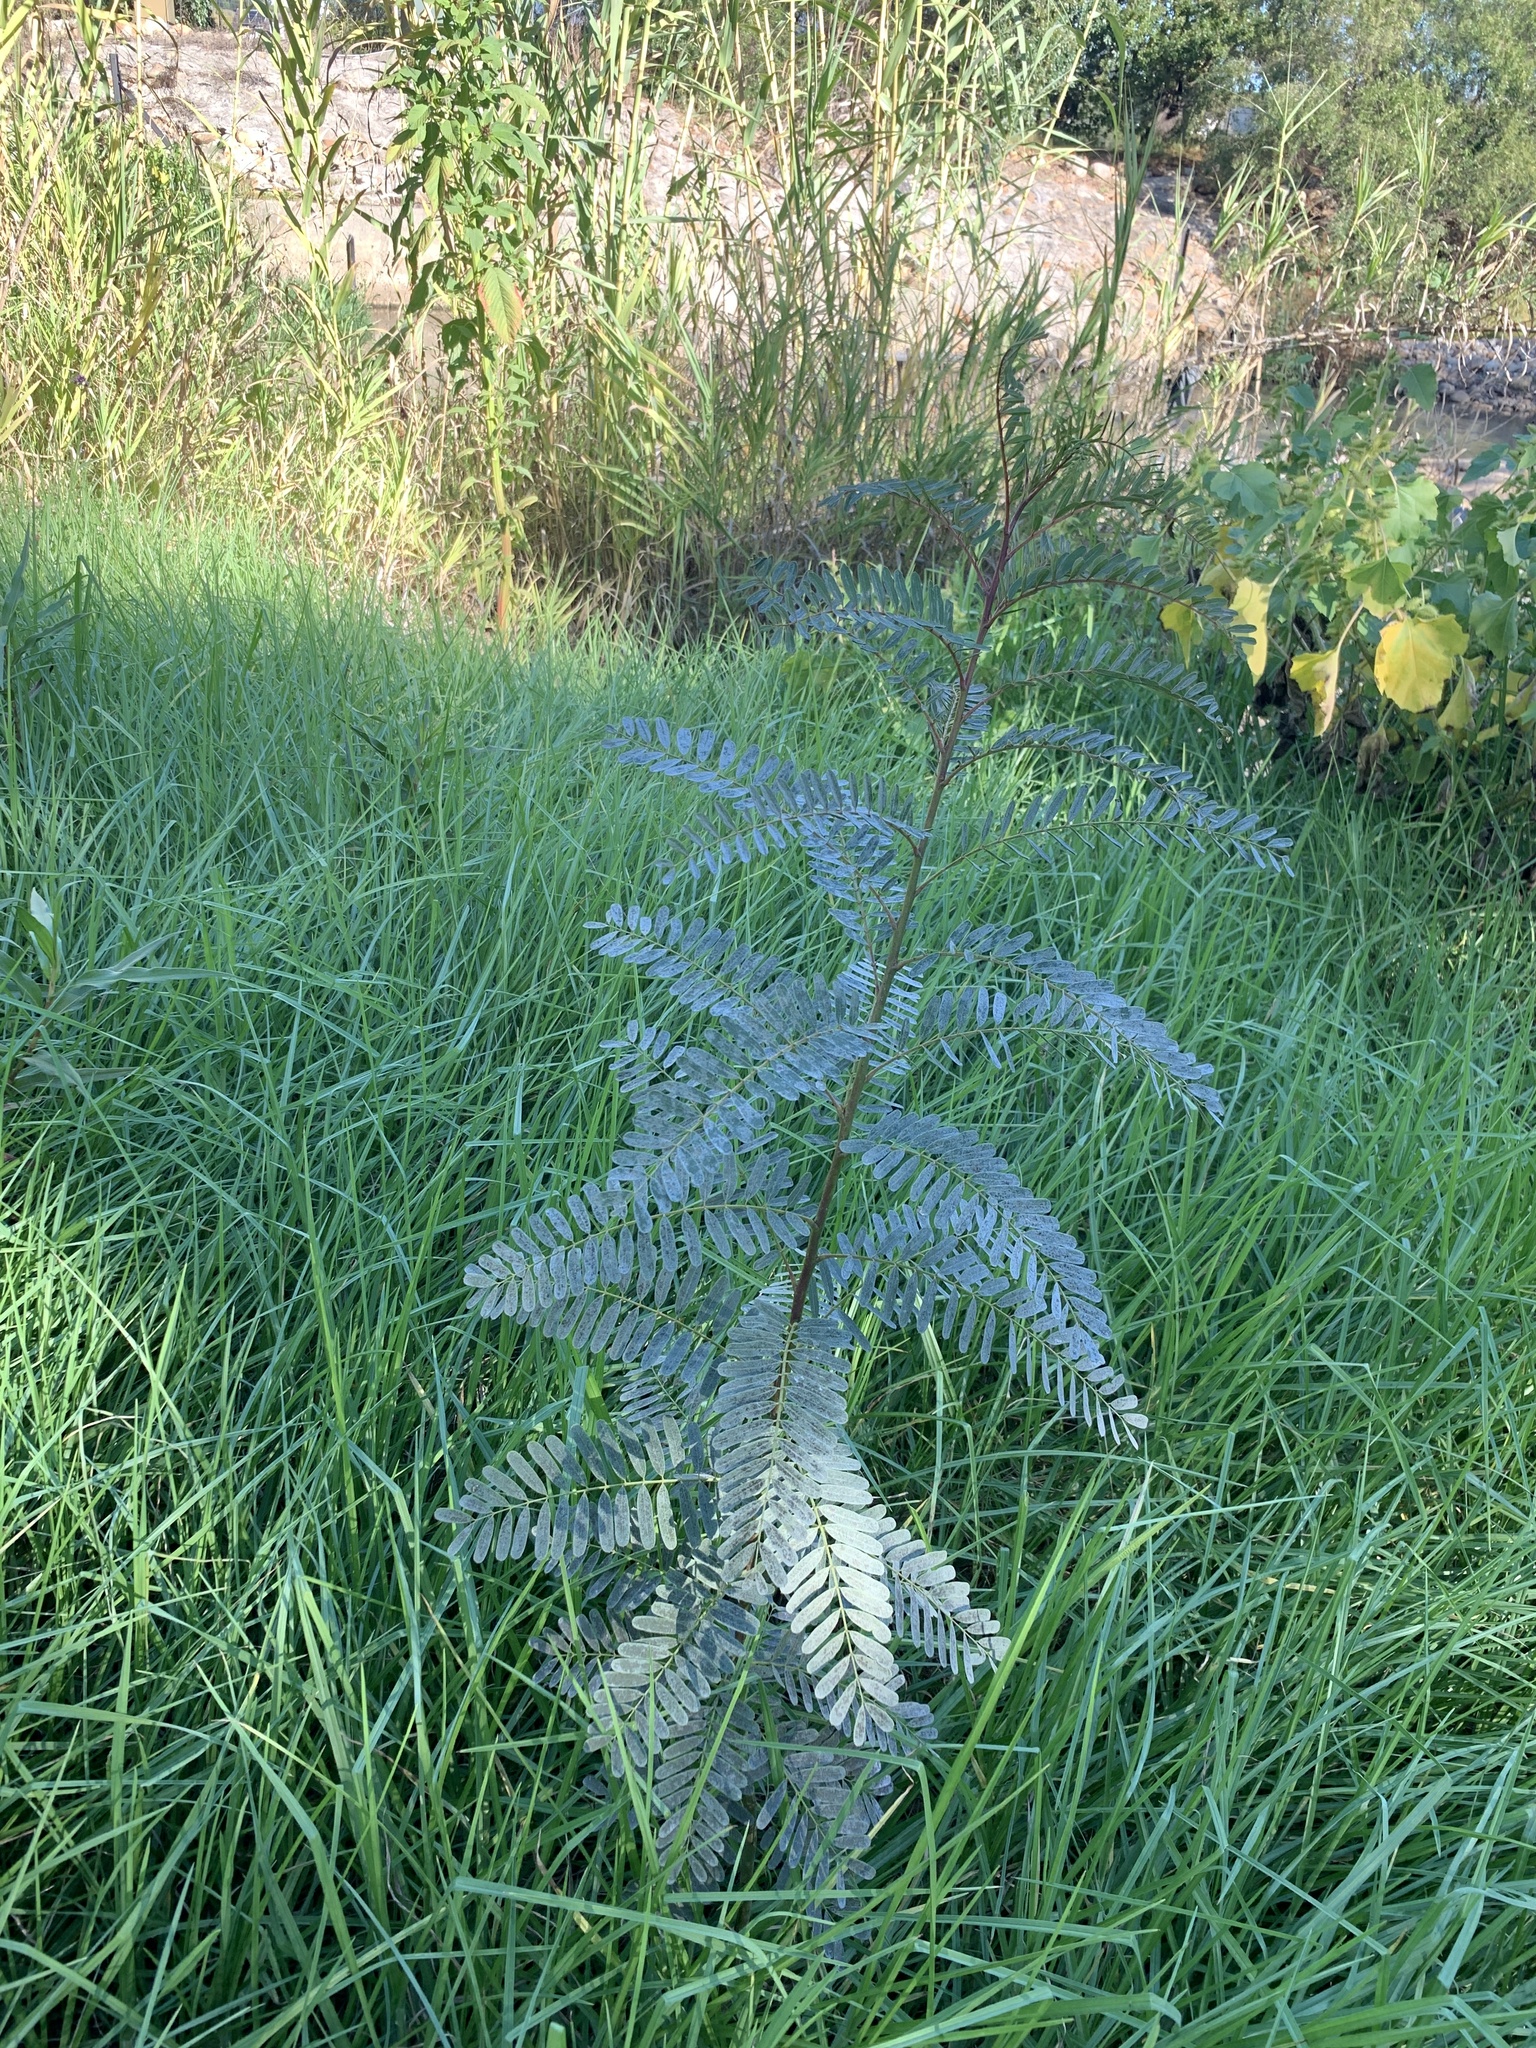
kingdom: Plantae
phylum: Tracheophyta
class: Magnoliopsida
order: Fabales
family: Fabaceae
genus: Sesbania
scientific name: Sesbania punicea
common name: Rattlebox
